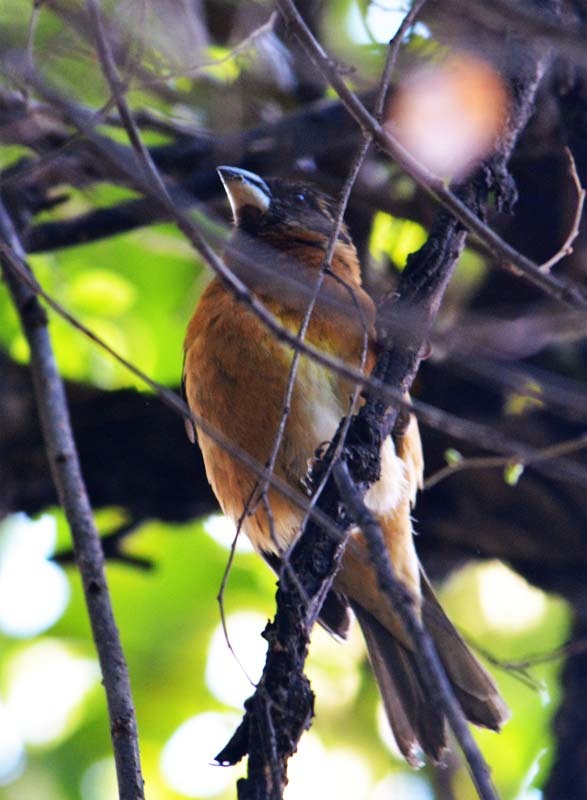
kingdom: Animalia
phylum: Chordata
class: Aves
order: Passeriformes
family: Cardinalidae
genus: Pheucticus
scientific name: Pheucticus melanocephalus
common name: Black-headed grosbeak
